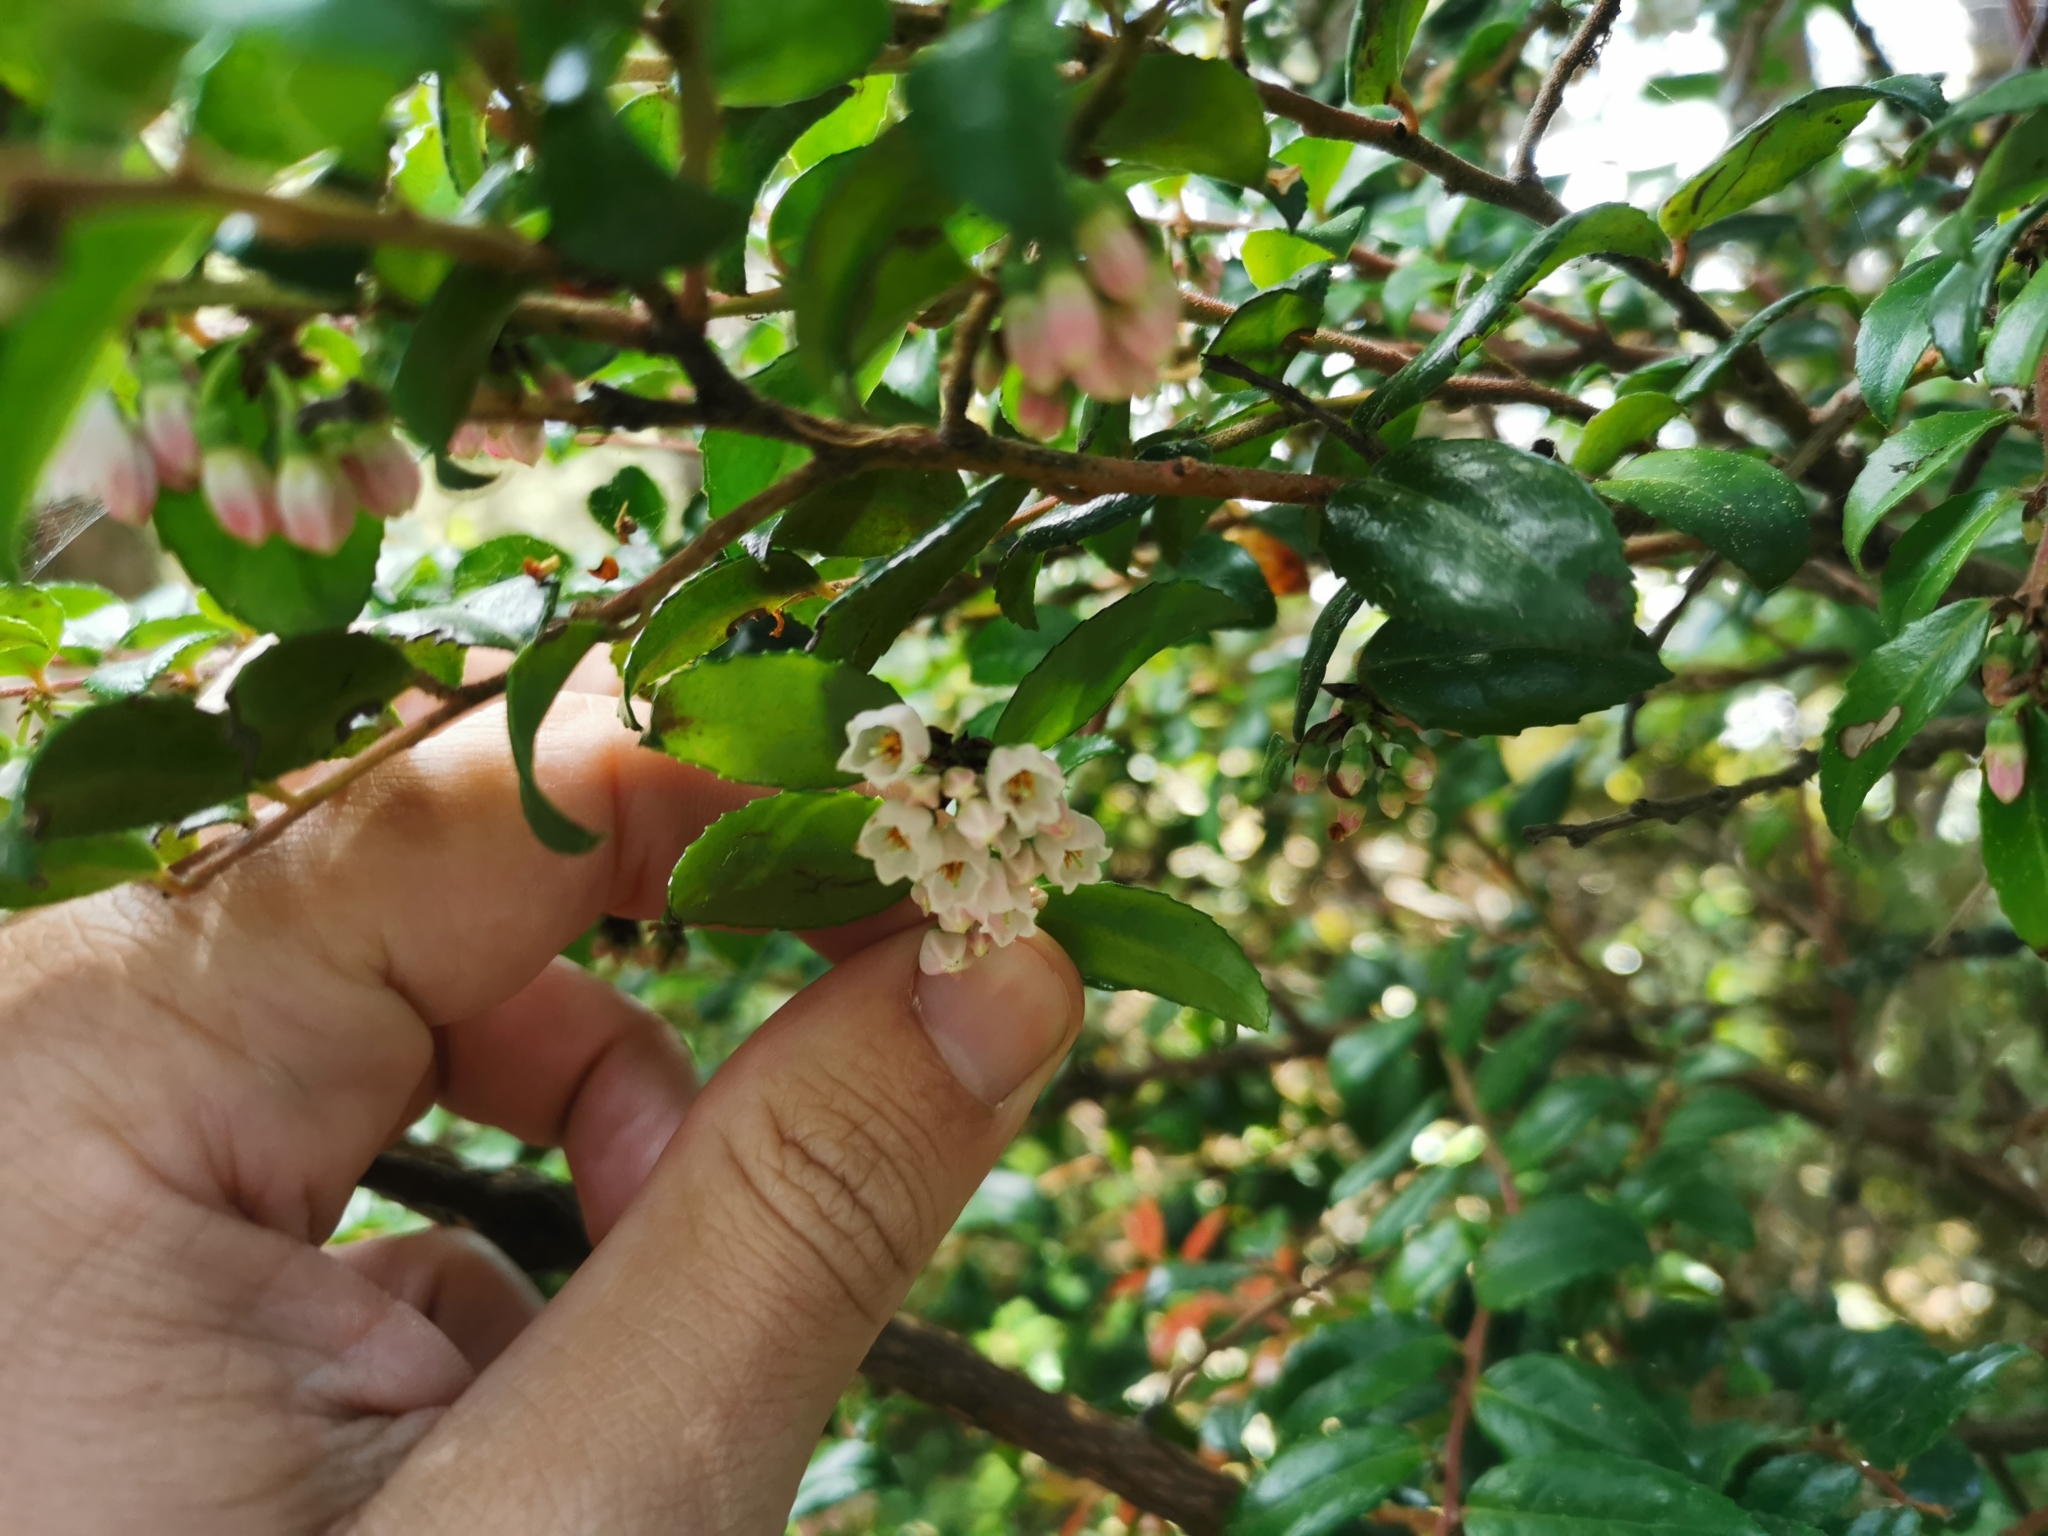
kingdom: Plantae
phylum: Tracheophyta
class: Magnoliopsida
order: Ericales
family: Ericaceae
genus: Vaccinium
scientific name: Vaccinium ovatum
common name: California-huckleberry
